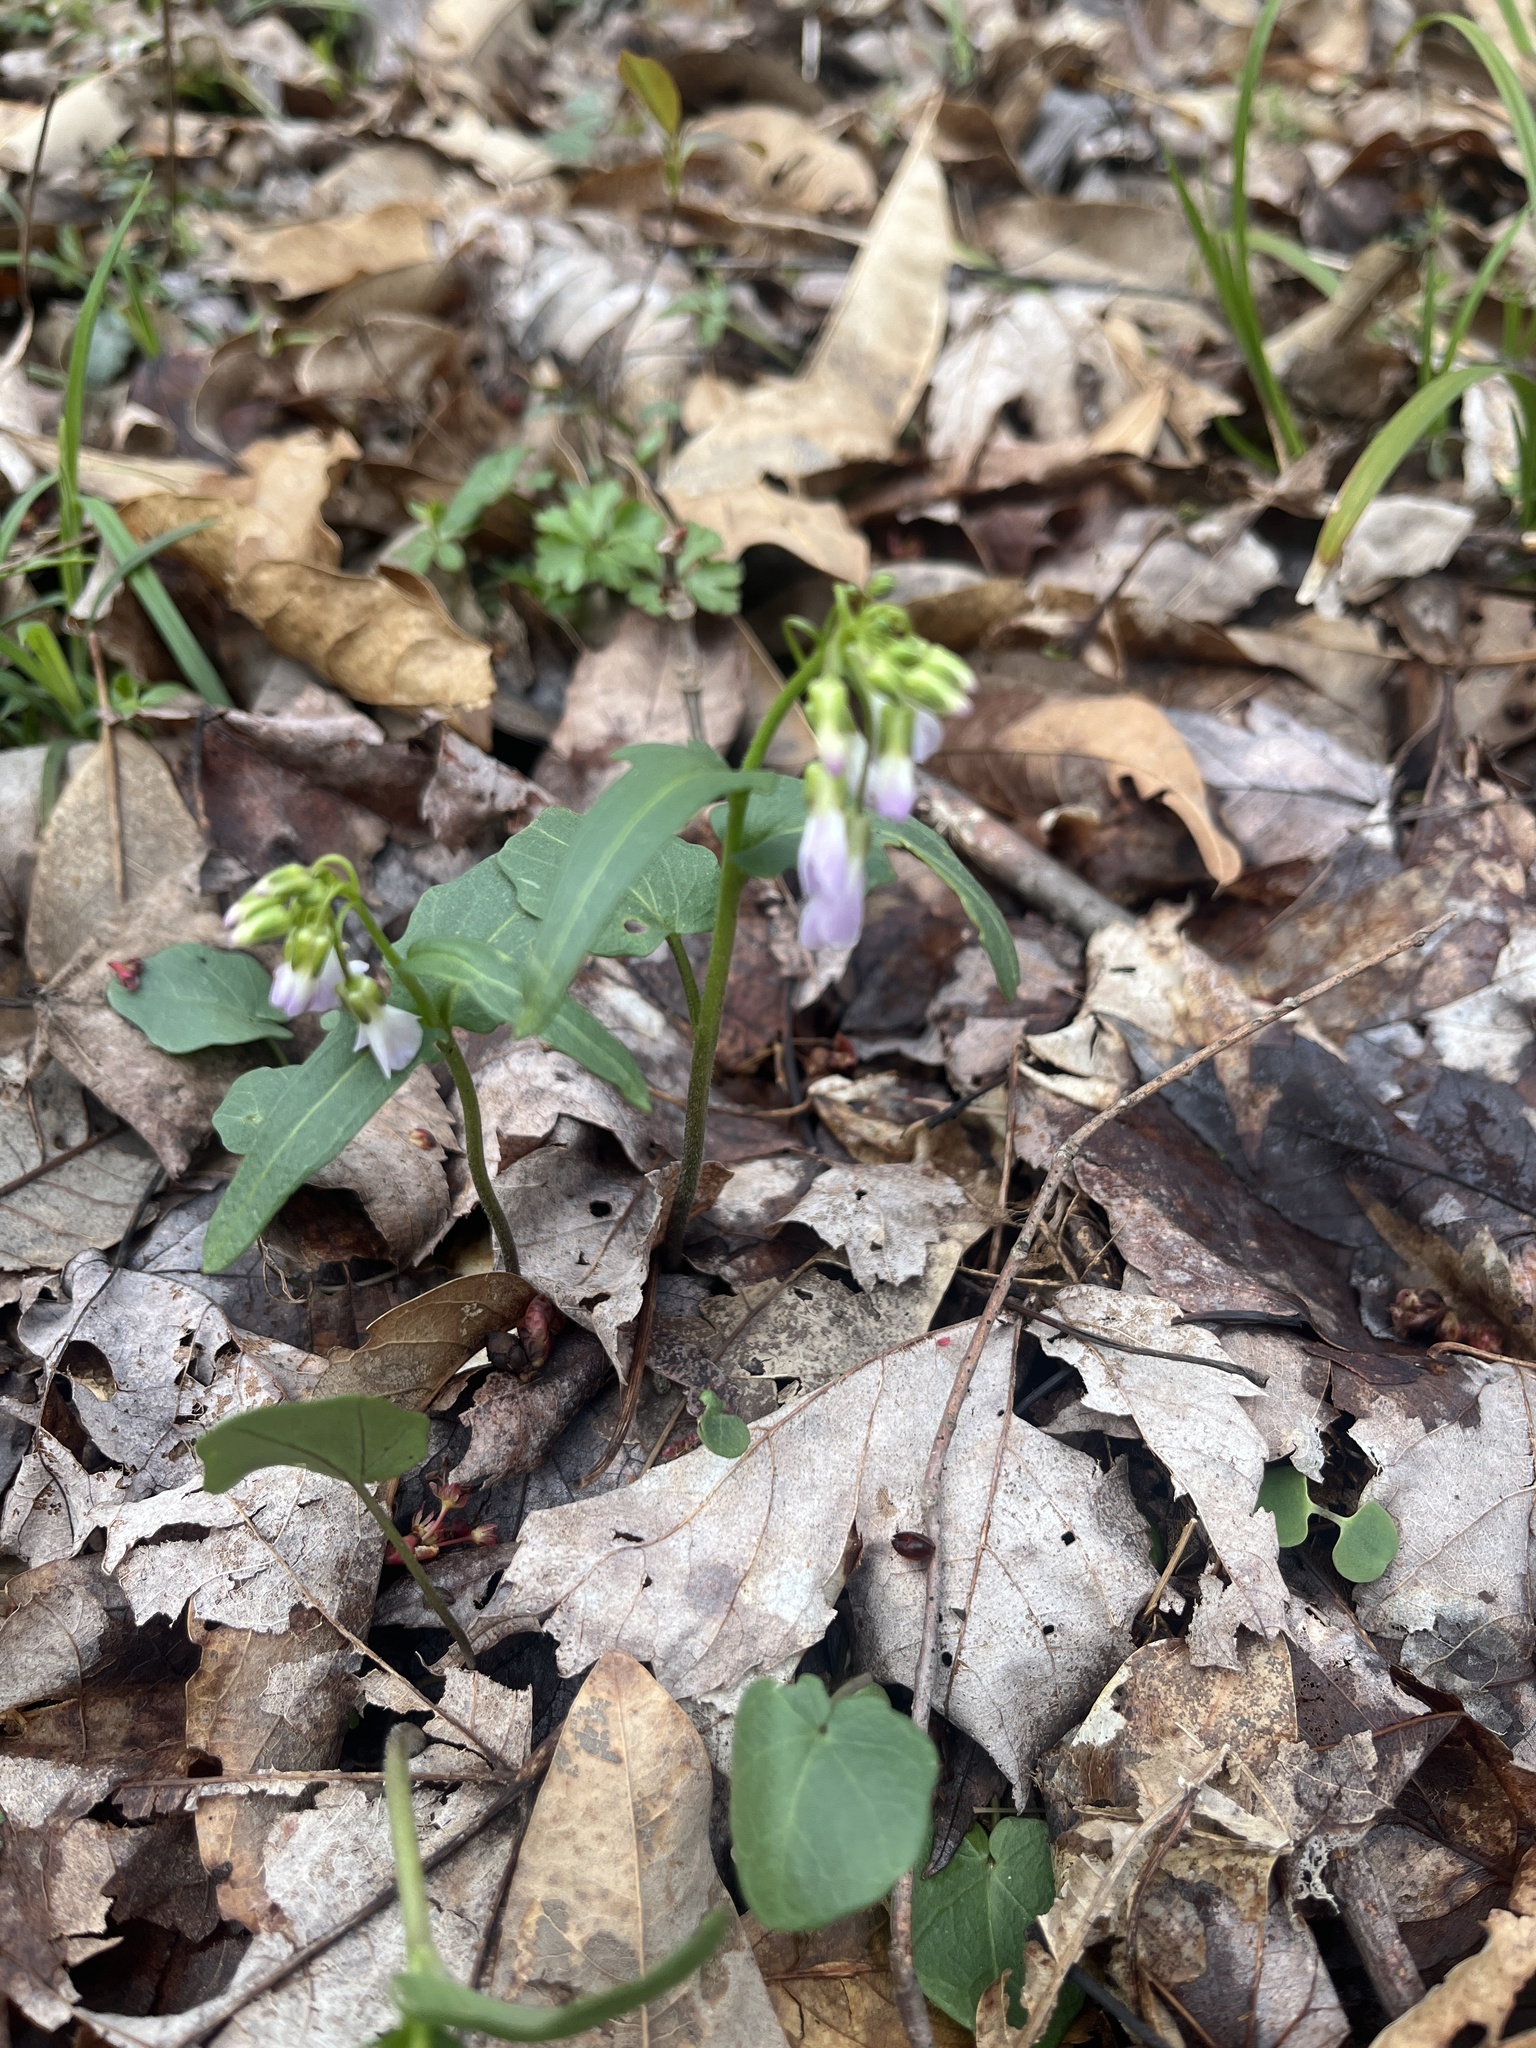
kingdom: Plantae
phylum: Tracheophyta
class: Magnoliopsida
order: Brassicales
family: Brassicaceae
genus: Cardamine
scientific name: Cardamine douglassii
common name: Purple cress
